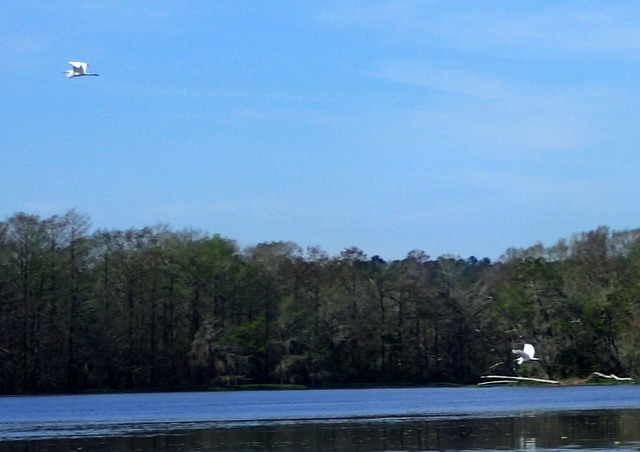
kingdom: Animalia
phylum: Chordata
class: Aves
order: Pelecaniformes
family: Ardeidae
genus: Ardea
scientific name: Ardea alba
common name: Great egret
